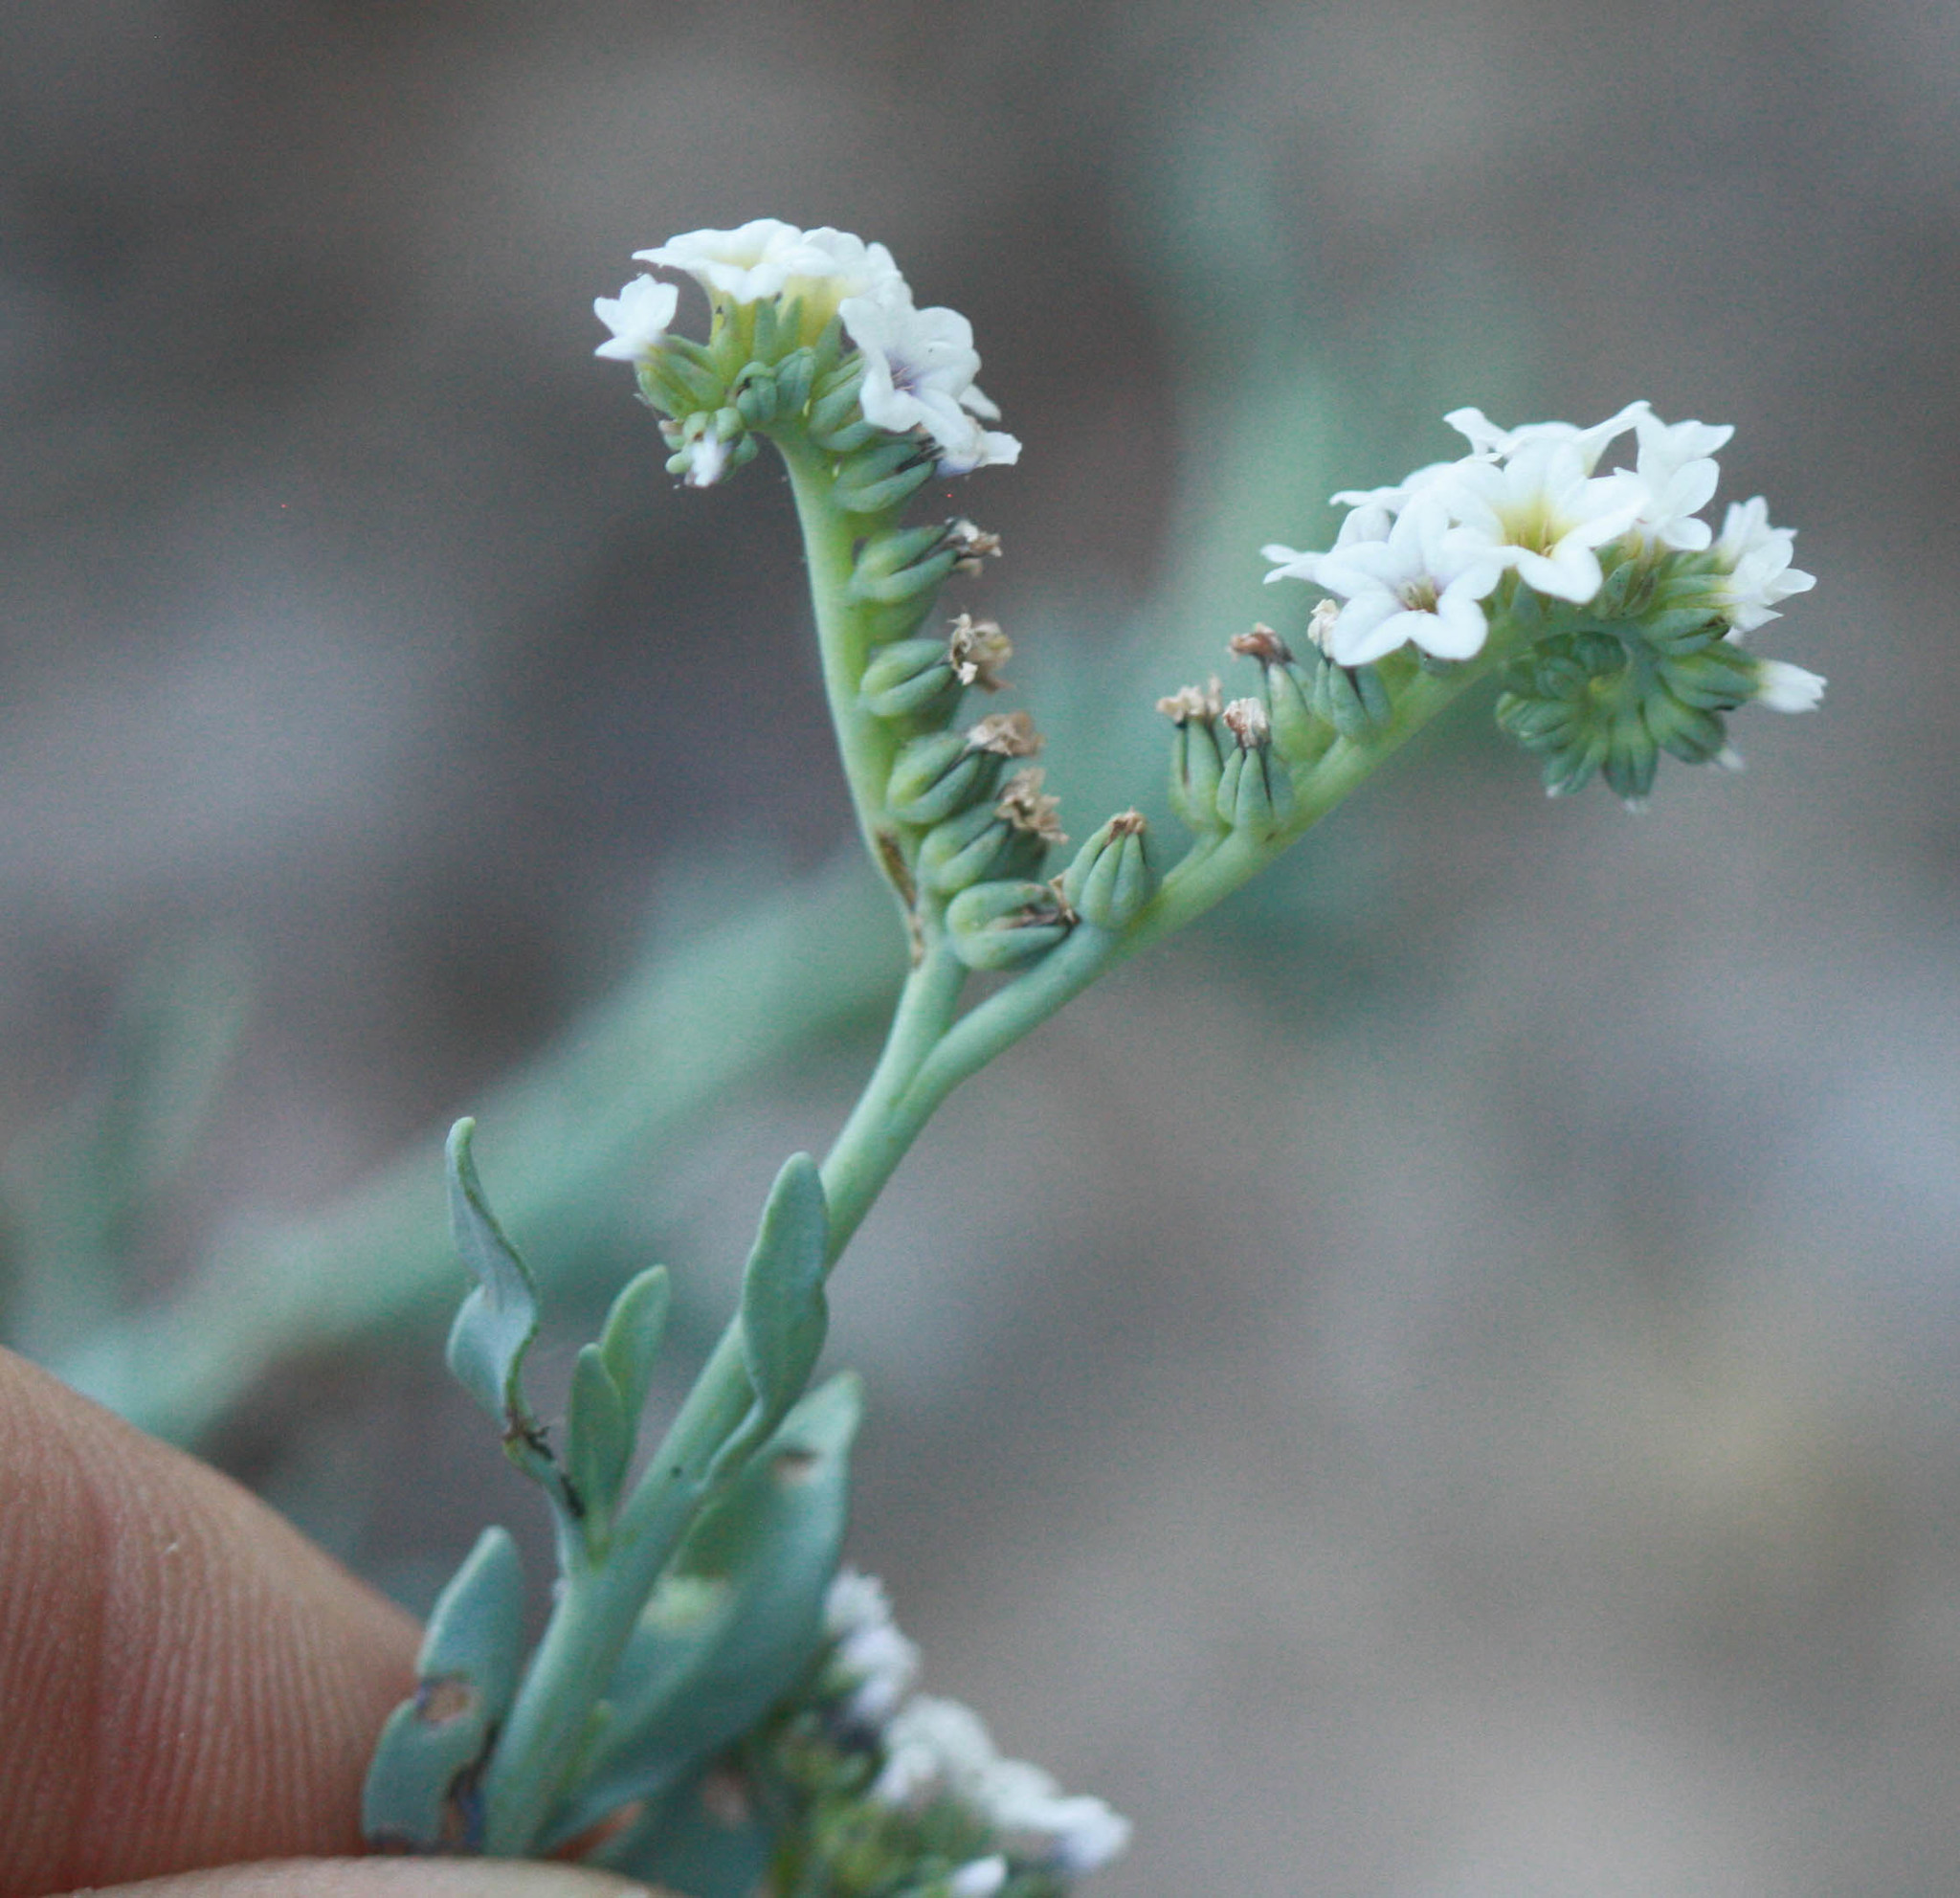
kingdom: Plantae
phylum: Tracheophyta
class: Magnoliopsida
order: Boraginales
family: Heliotropiaceae
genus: Heliotropium
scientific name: Heliotropium curassavicum
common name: Seaside heliotrope
